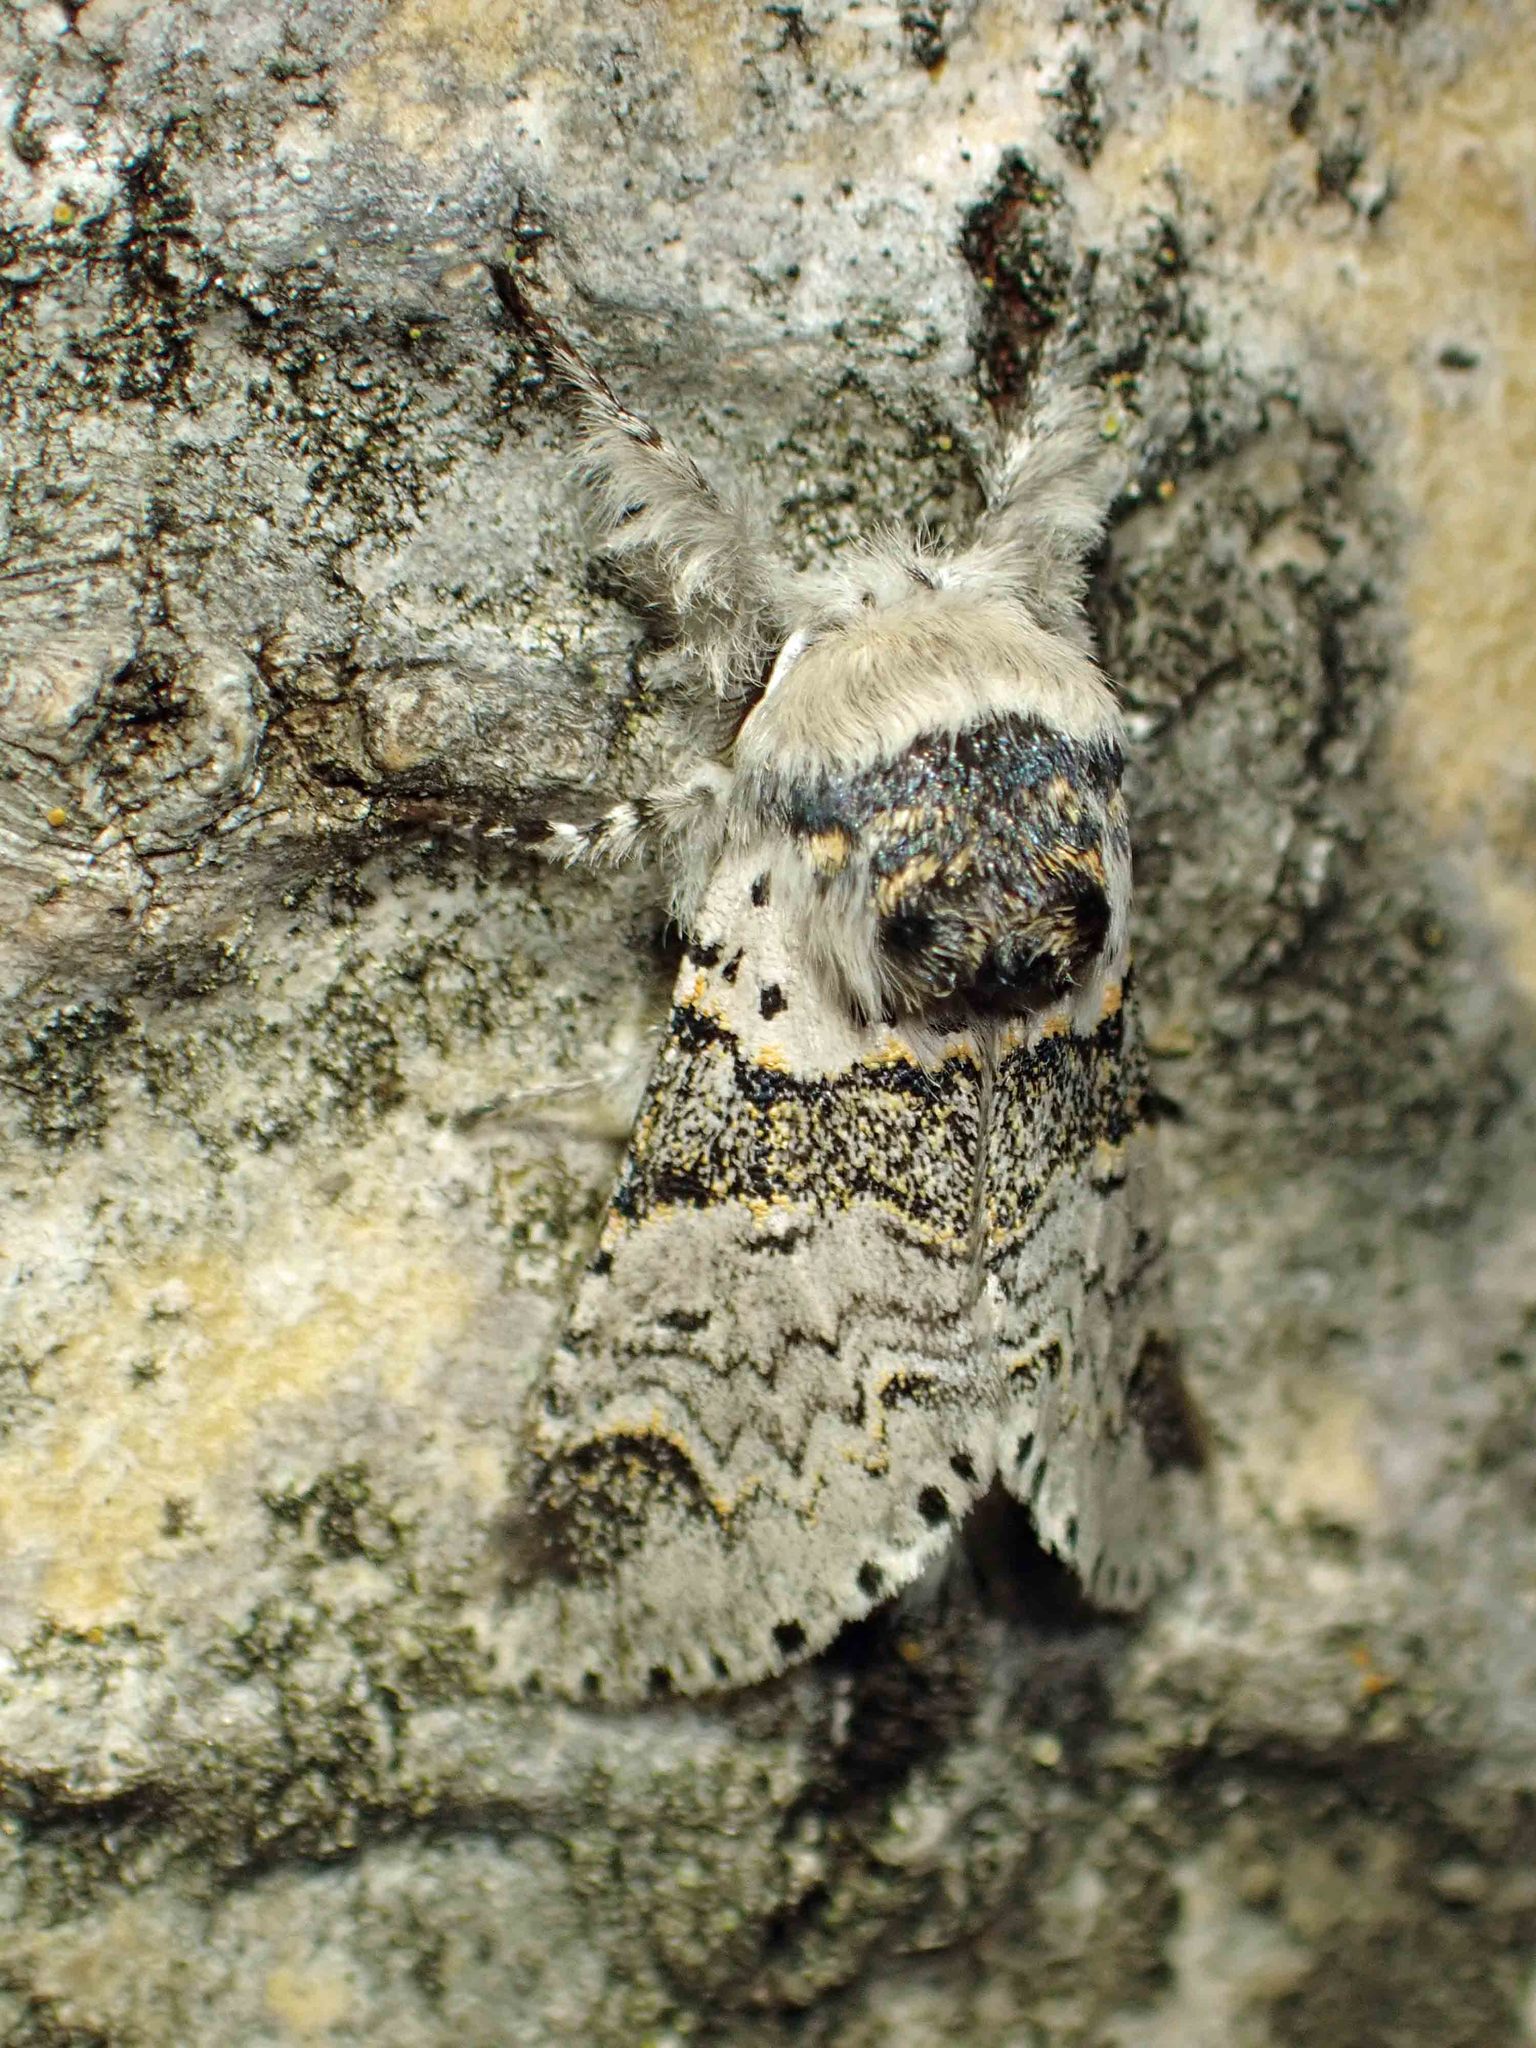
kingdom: Animalia
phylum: Arthropoda
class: Insecta
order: Lepidoptera
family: Notodontidae
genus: Furcula
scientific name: Furcula occidentalis
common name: Western furcula moth
